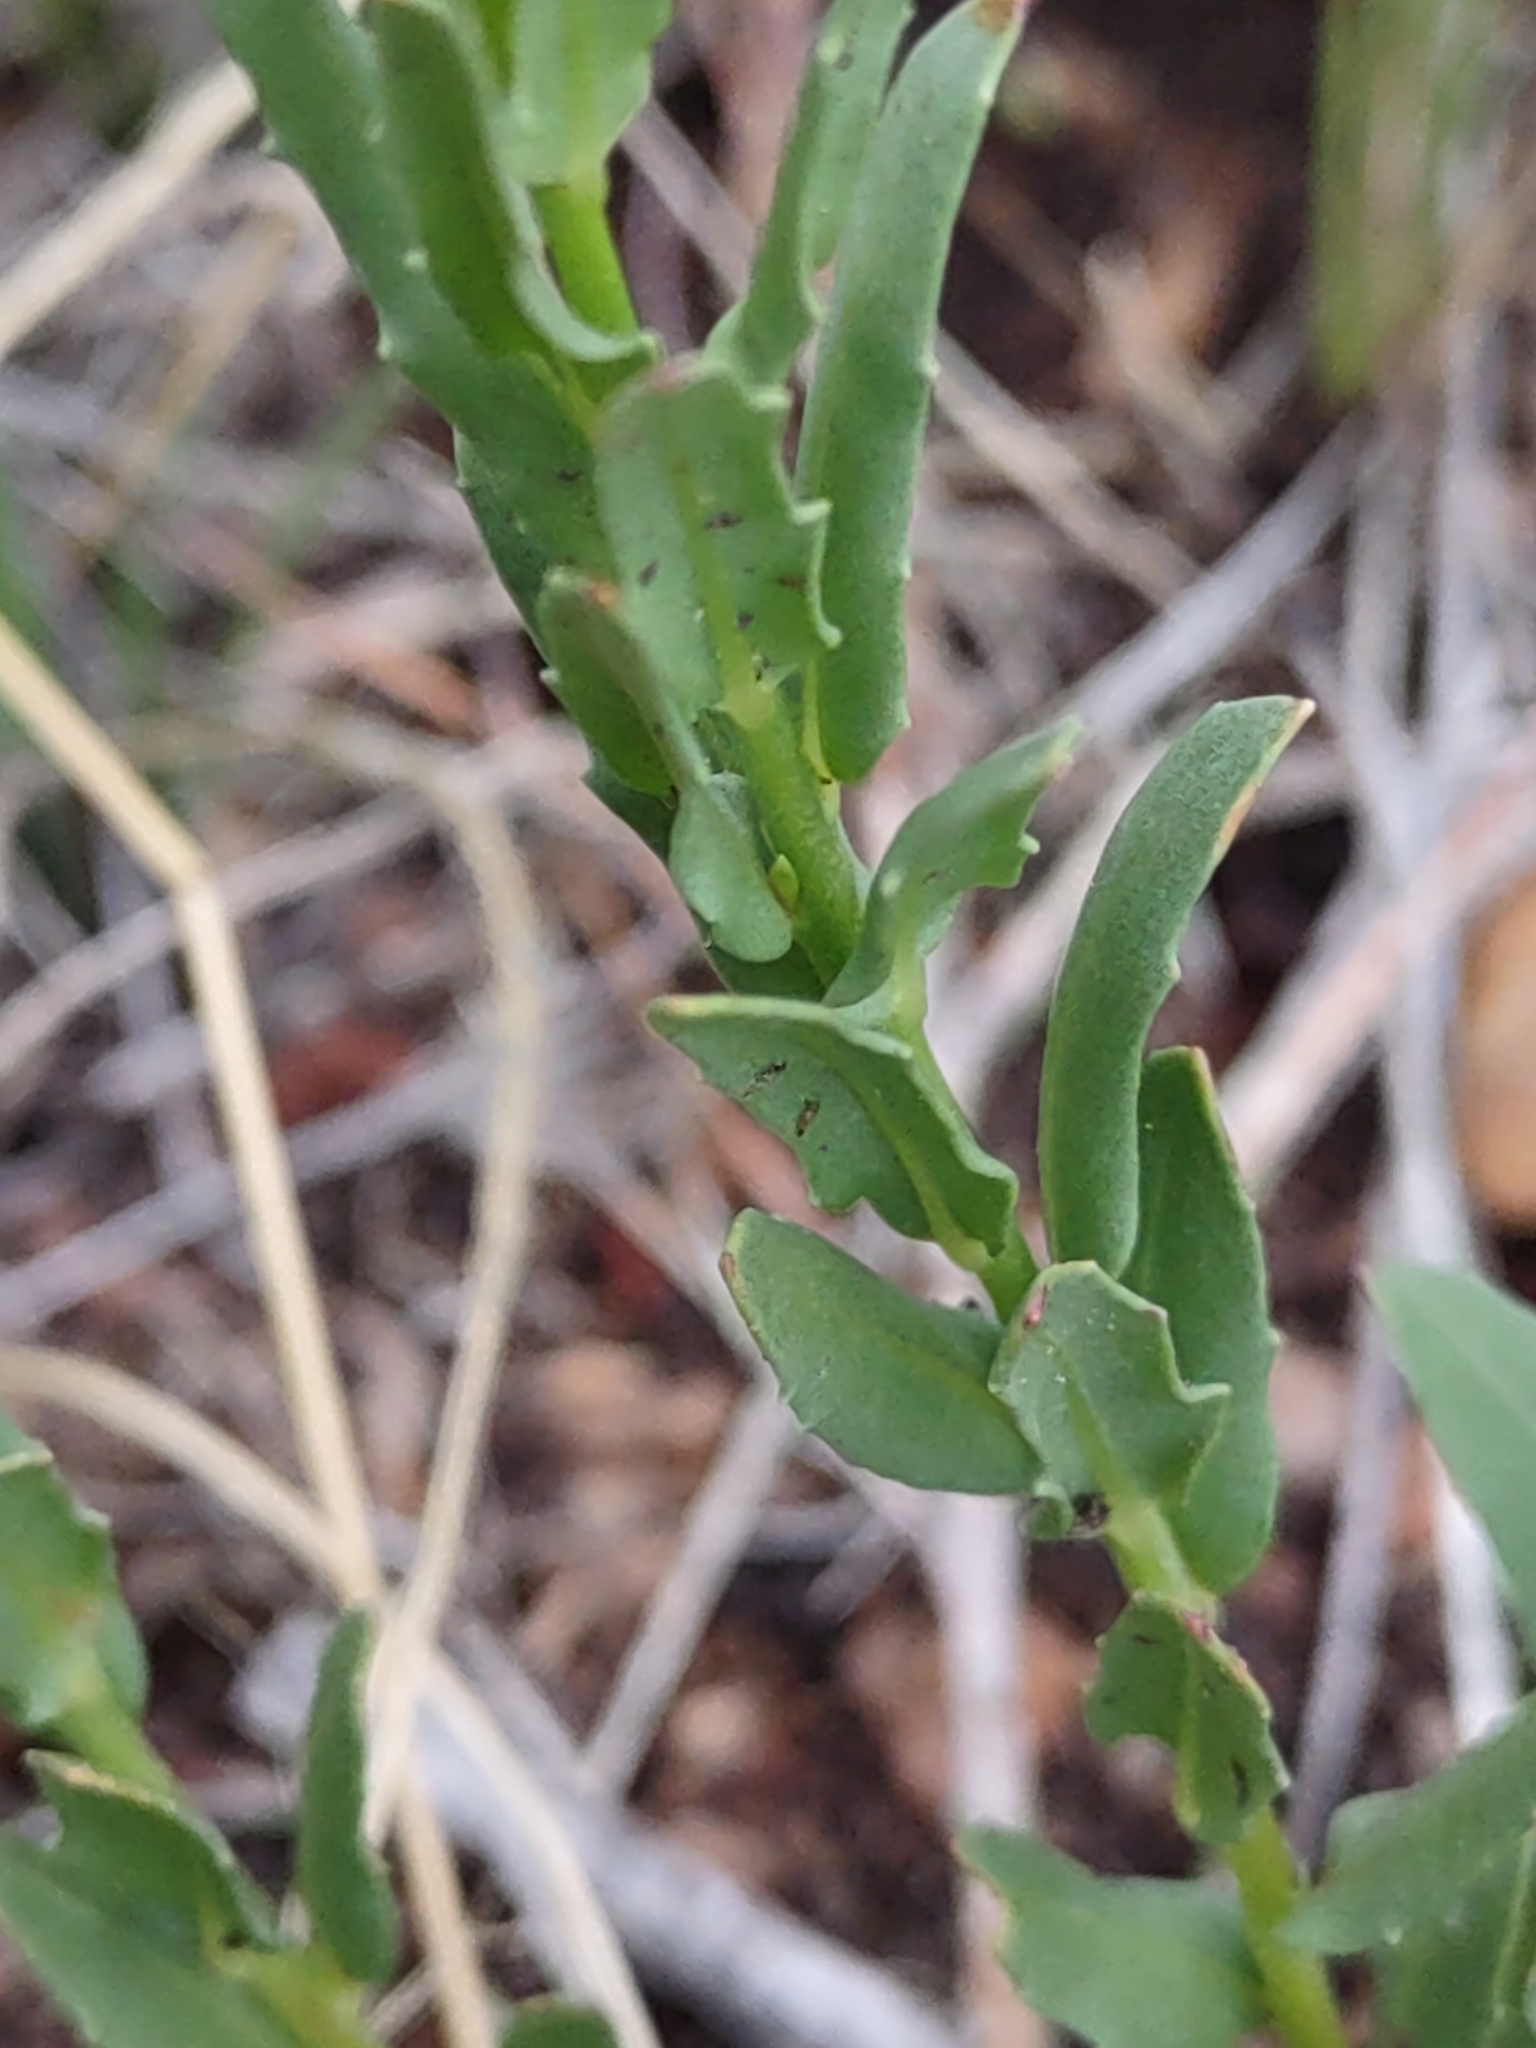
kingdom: Plantae
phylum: Tracheophyta
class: Magnoliopsida
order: Myrtales
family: Onagraceae
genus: Oenothera
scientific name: Oenothera suffrutescens
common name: Scarlet beeblossom
